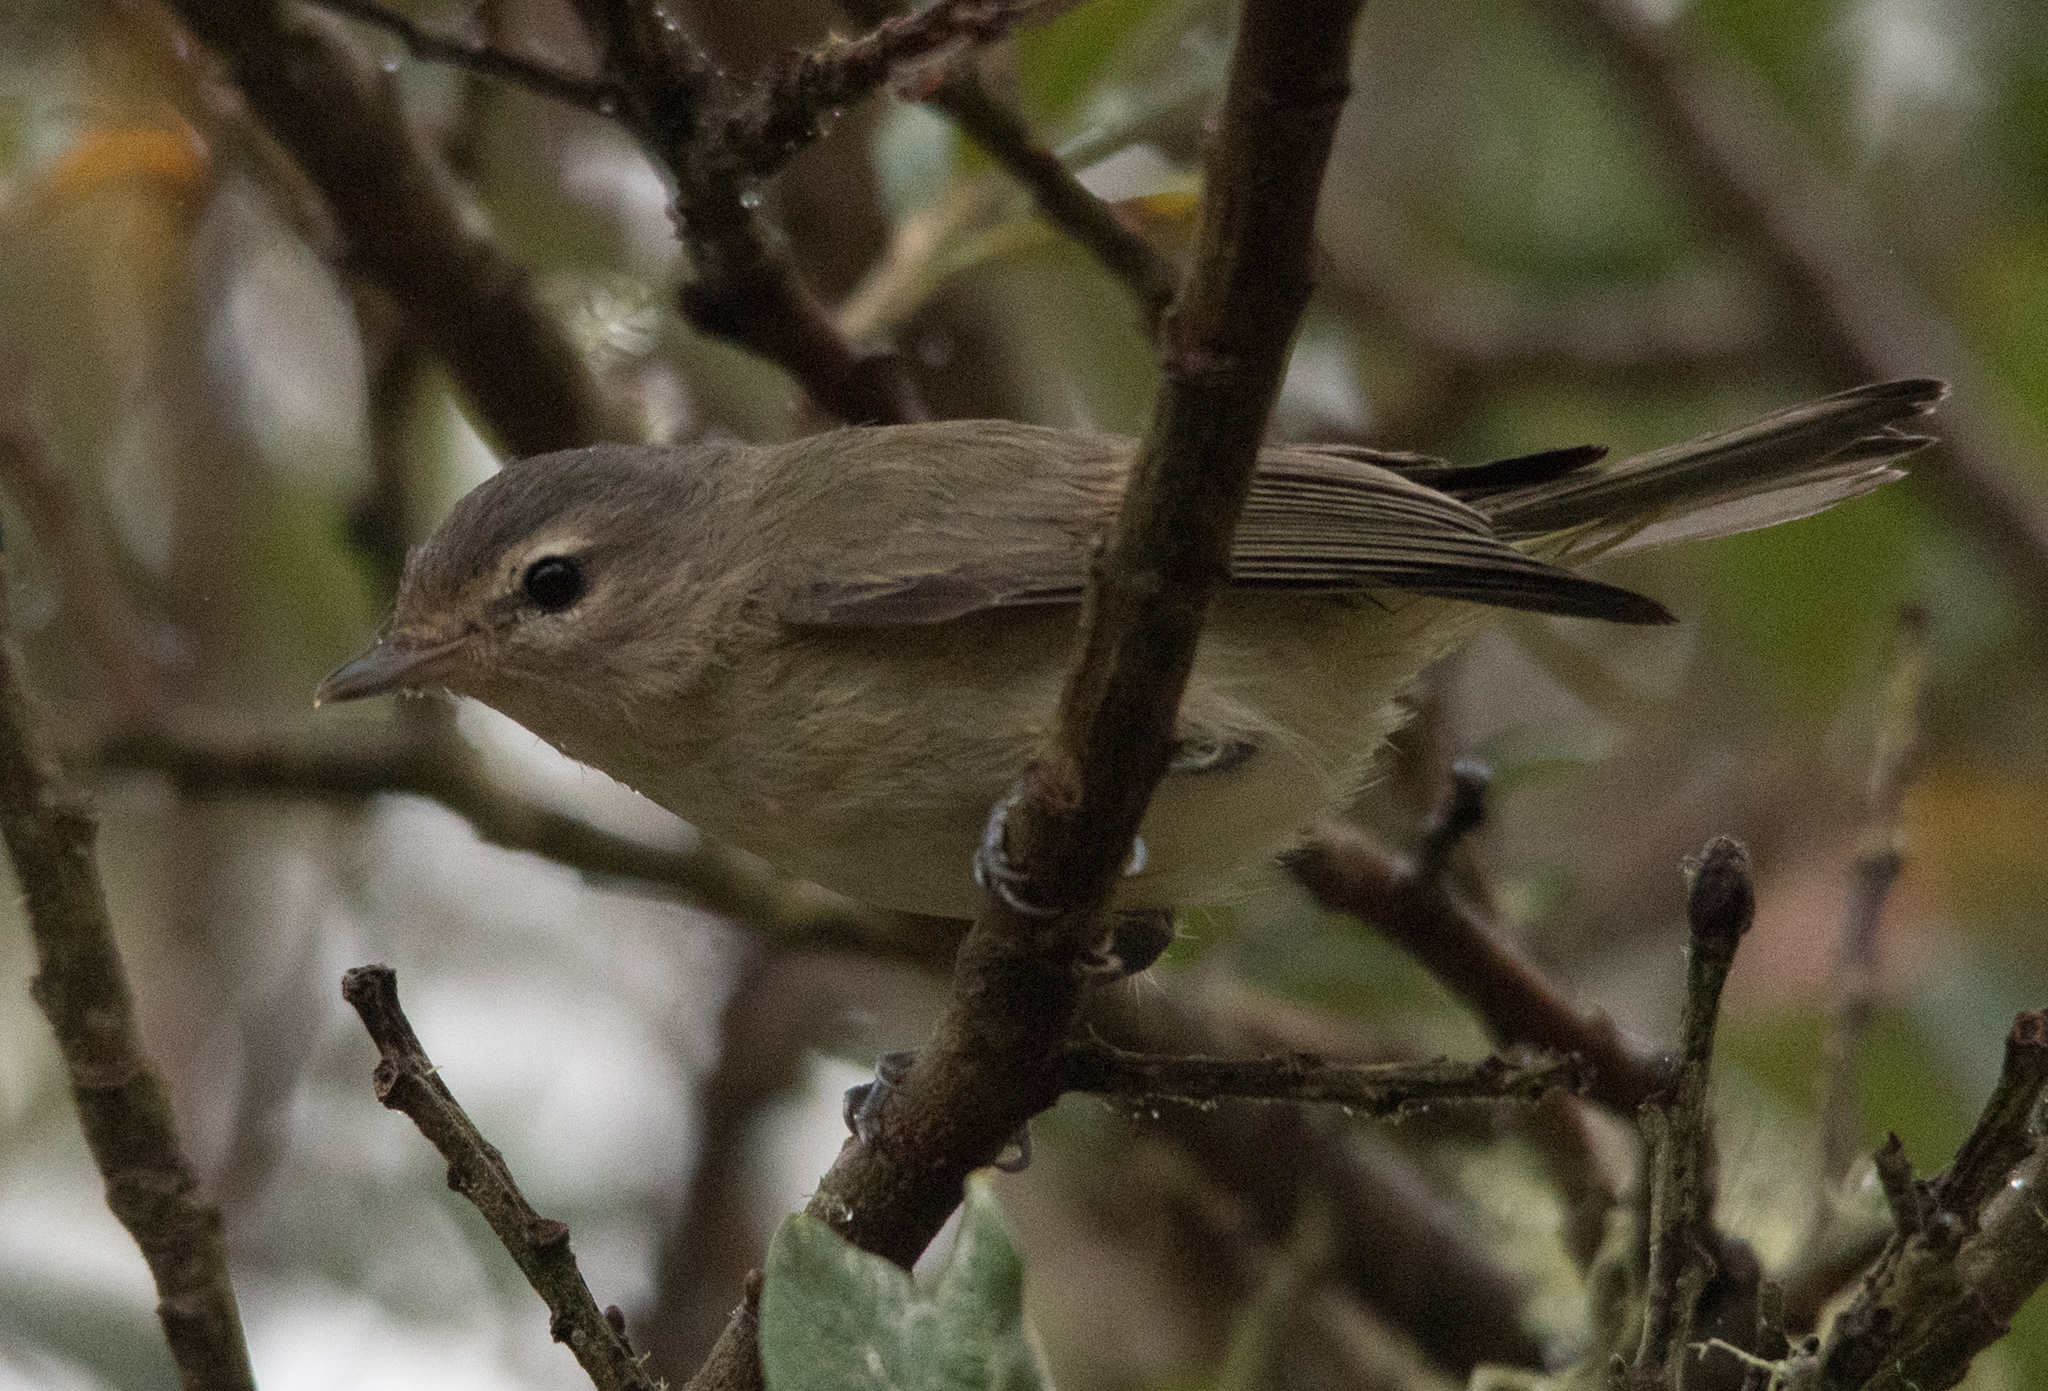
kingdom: Animalia
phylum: Chordata
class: Aves
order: Passeriformes
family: Vireonidae
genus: Vireo
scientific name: Vireo gilvus
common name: Warbling vireo
